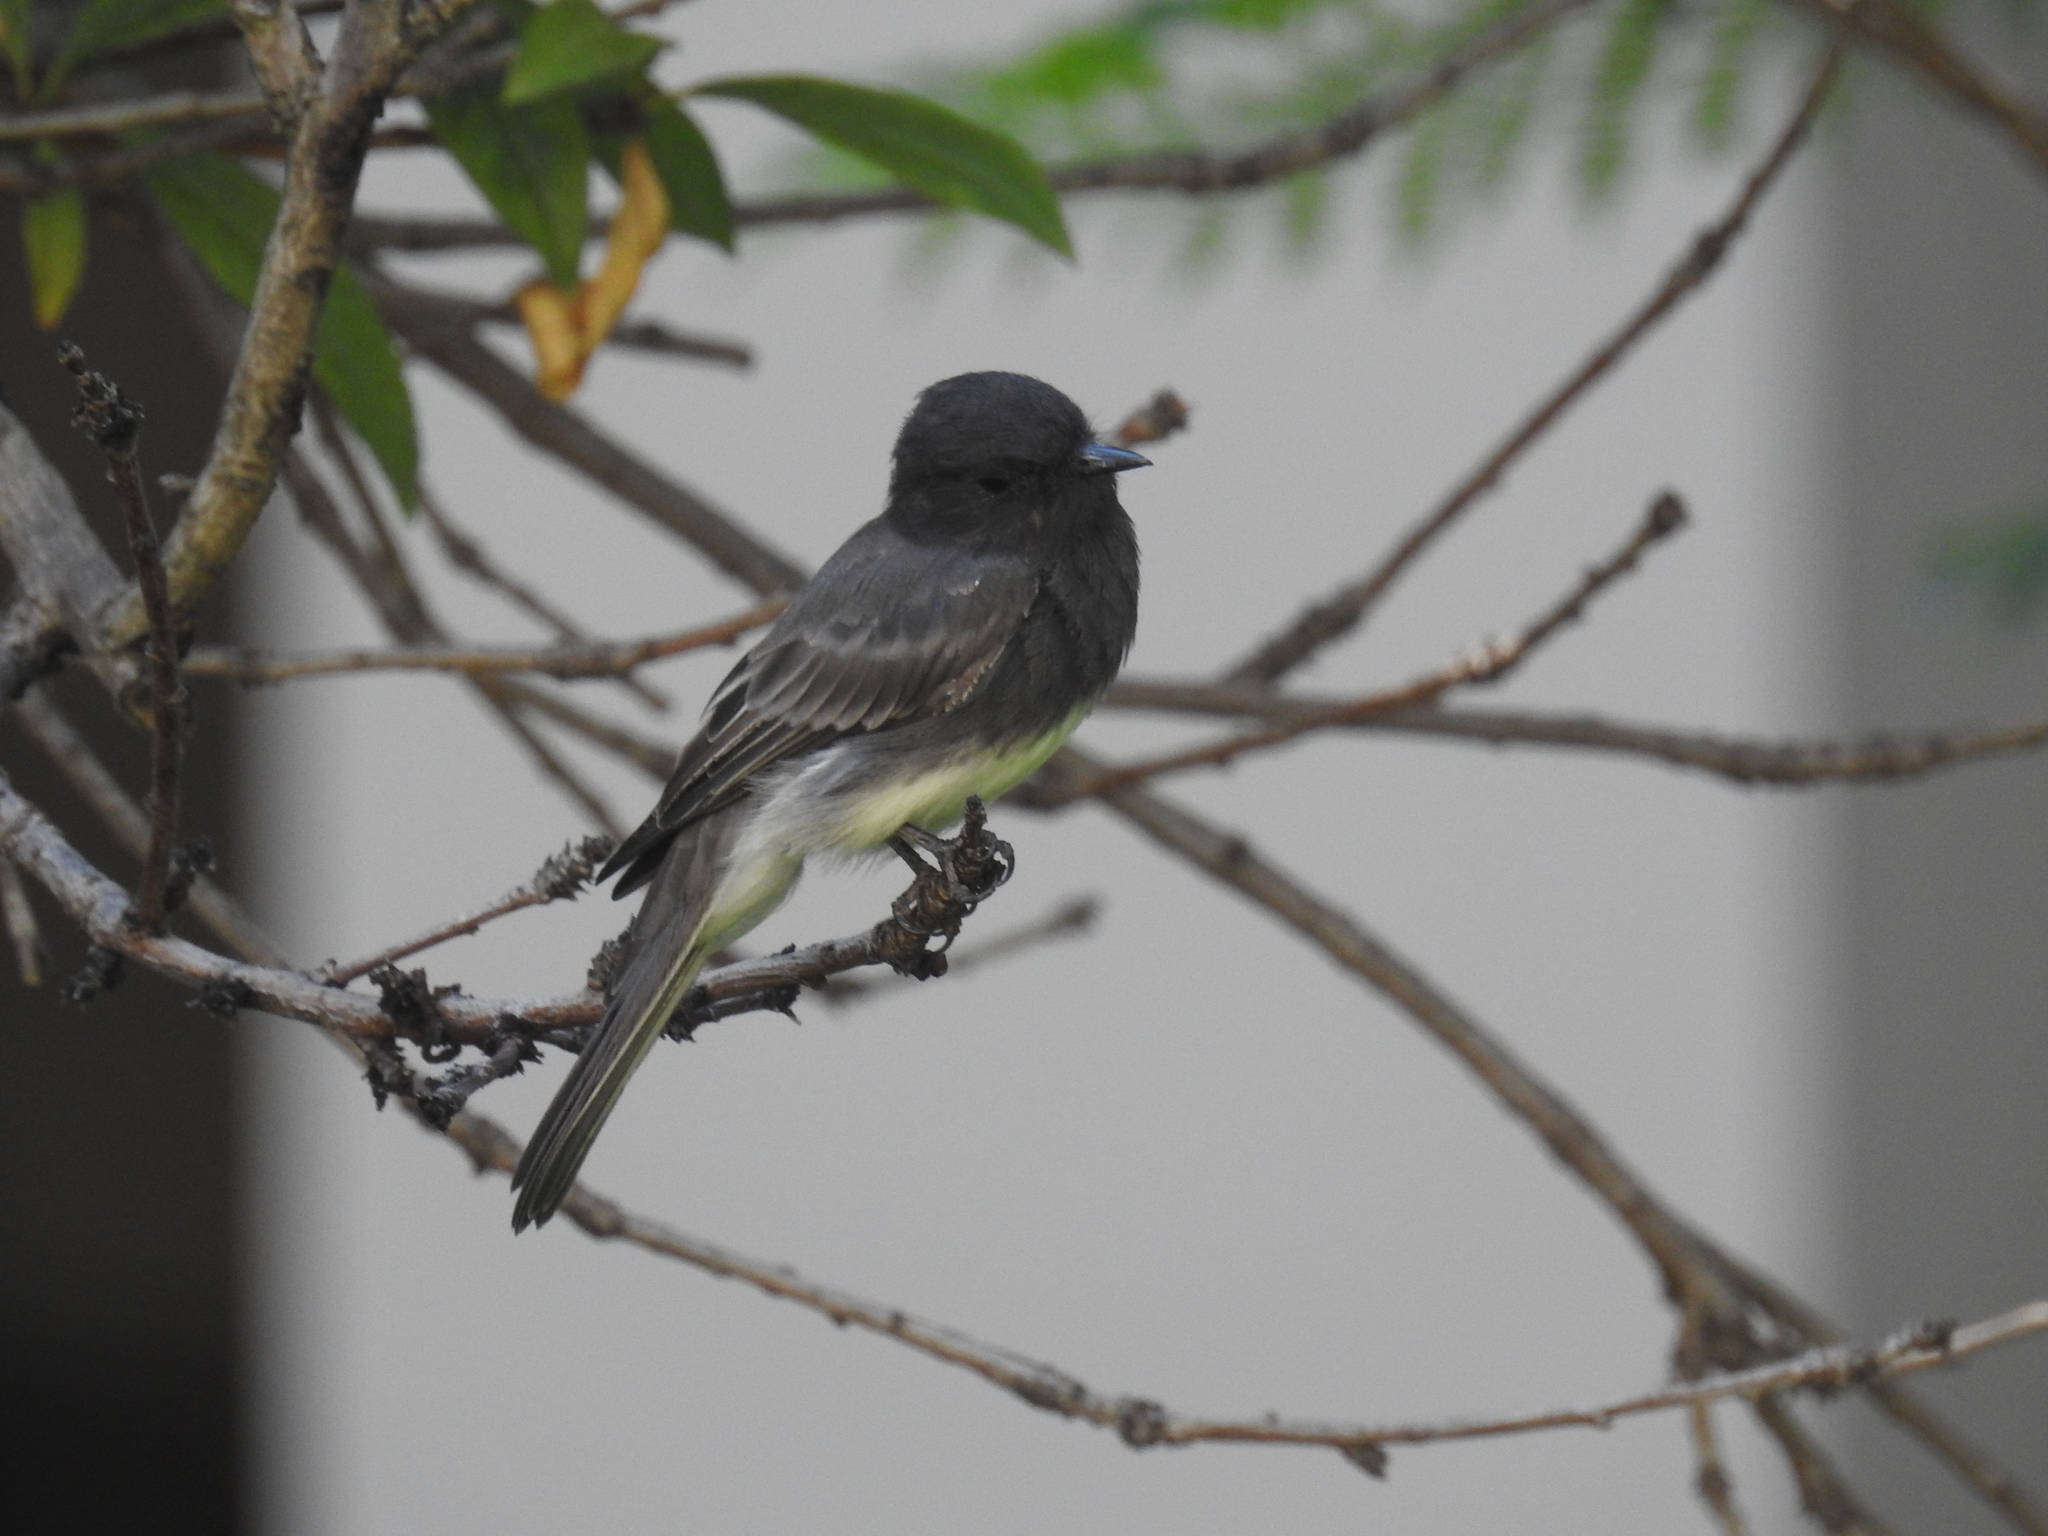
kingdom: Animalia
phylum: Chordata
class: Aves
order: Passeriformes
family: Tyrannidae
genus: Sayornis
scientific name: Sayornis nigricans
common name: Black phoebe
